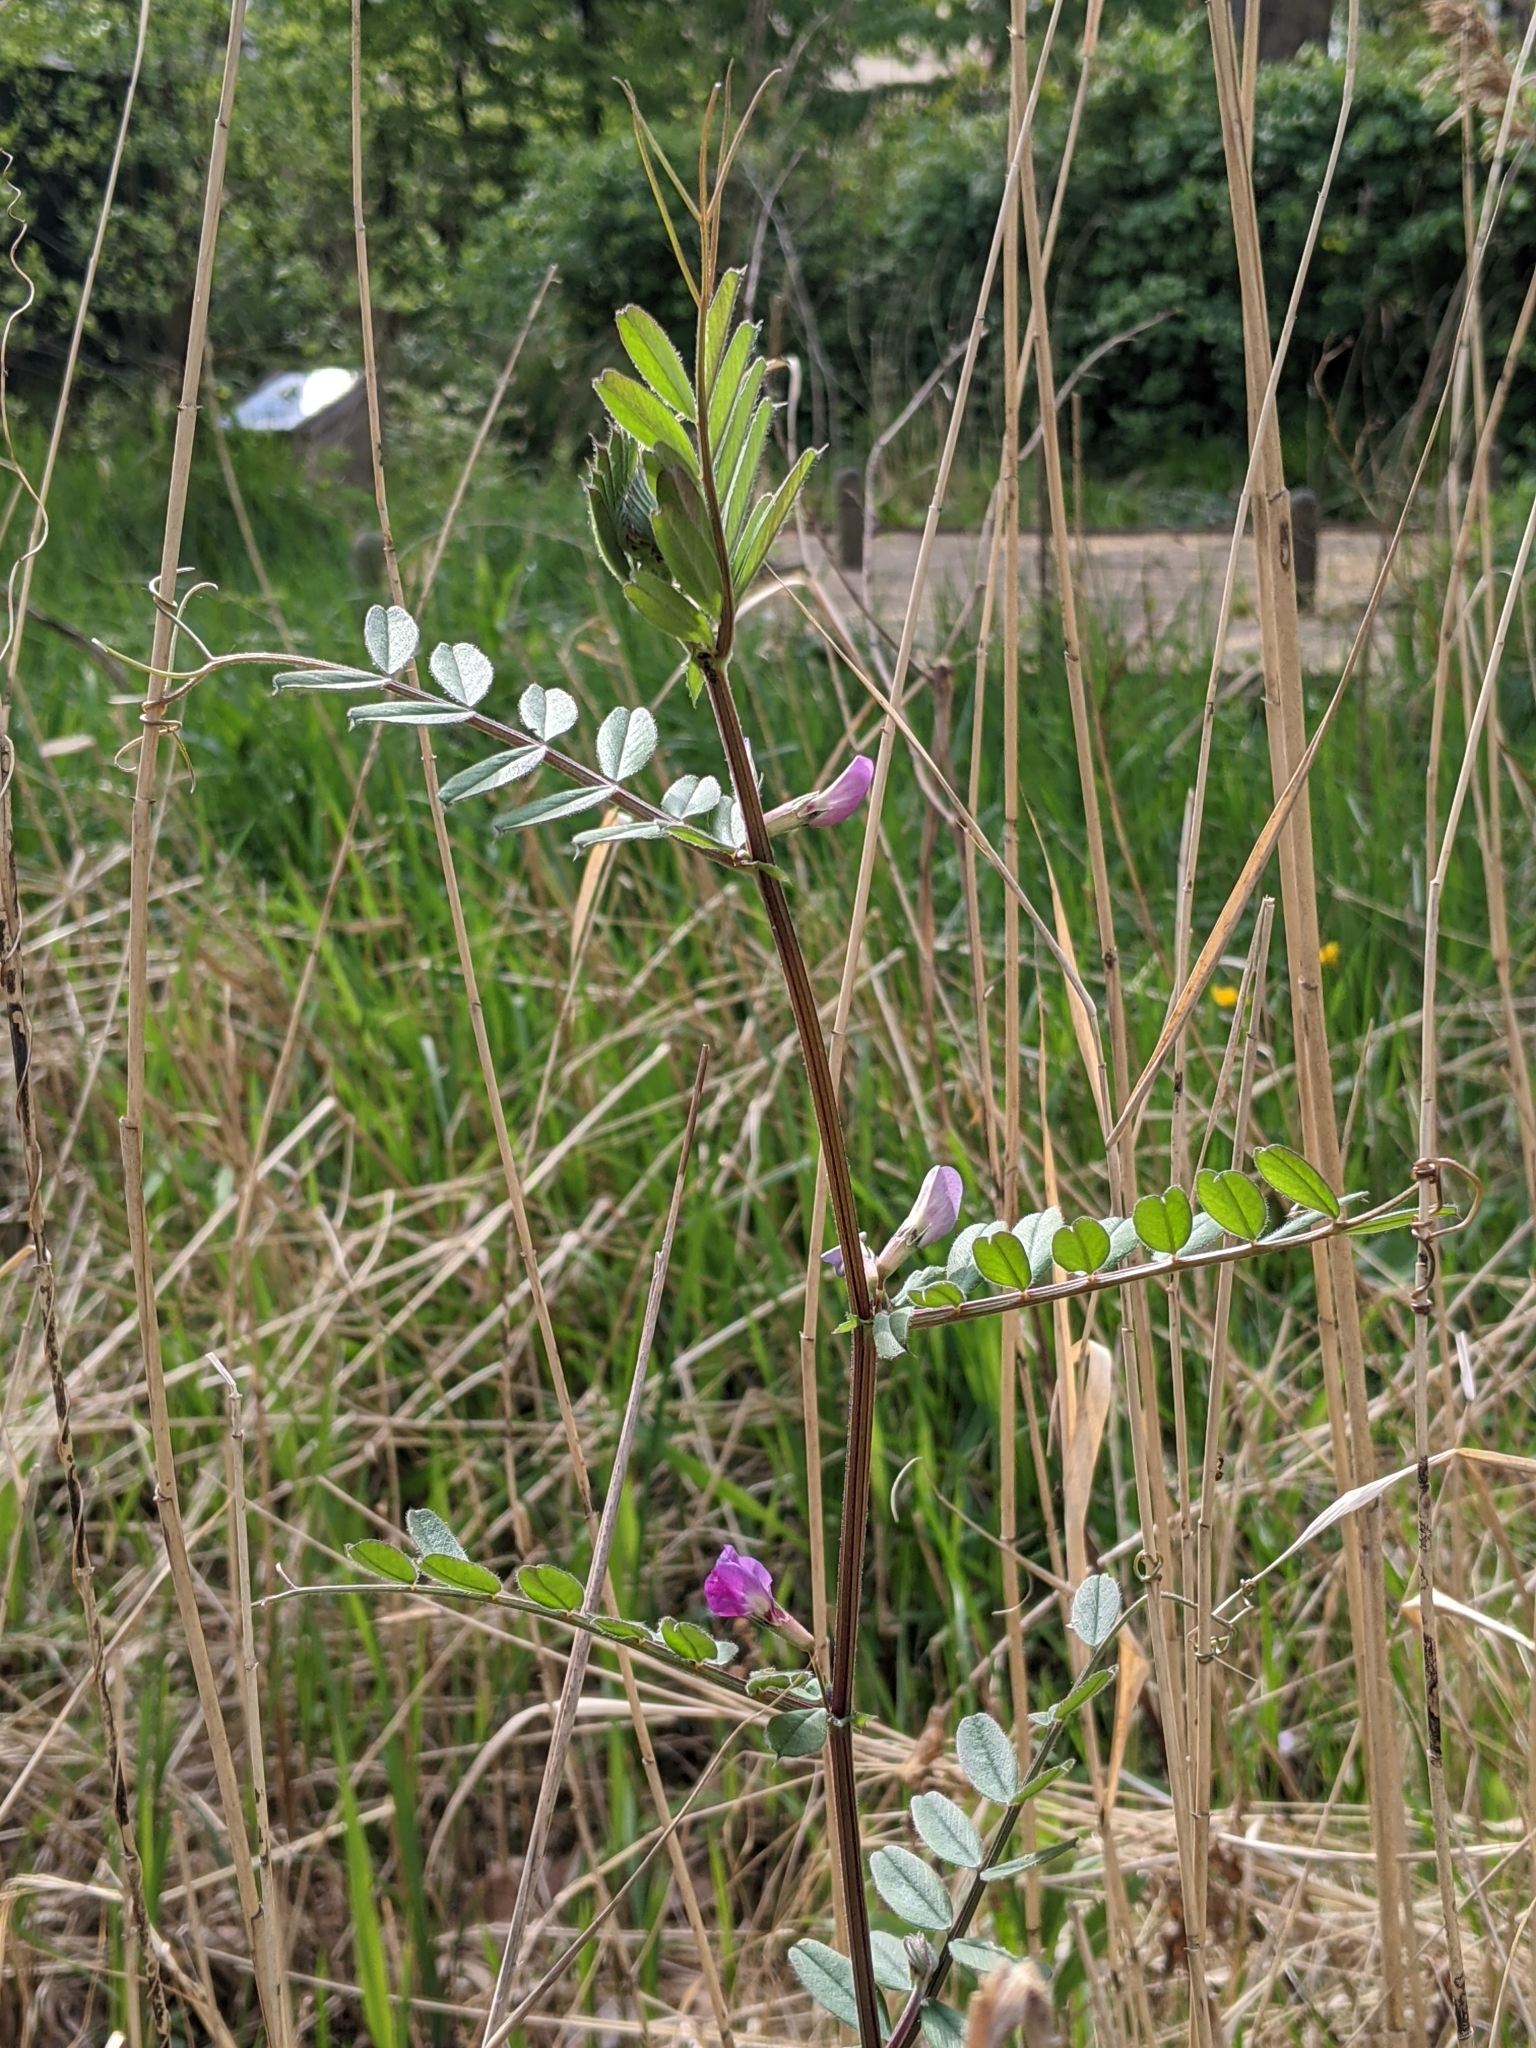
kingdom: Plantae
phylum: Tracheophyta
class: Magnoliopsida
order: Fabales
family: Fabaceae
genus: Vicia
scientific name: Vicia sativa
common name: Garden vetch
